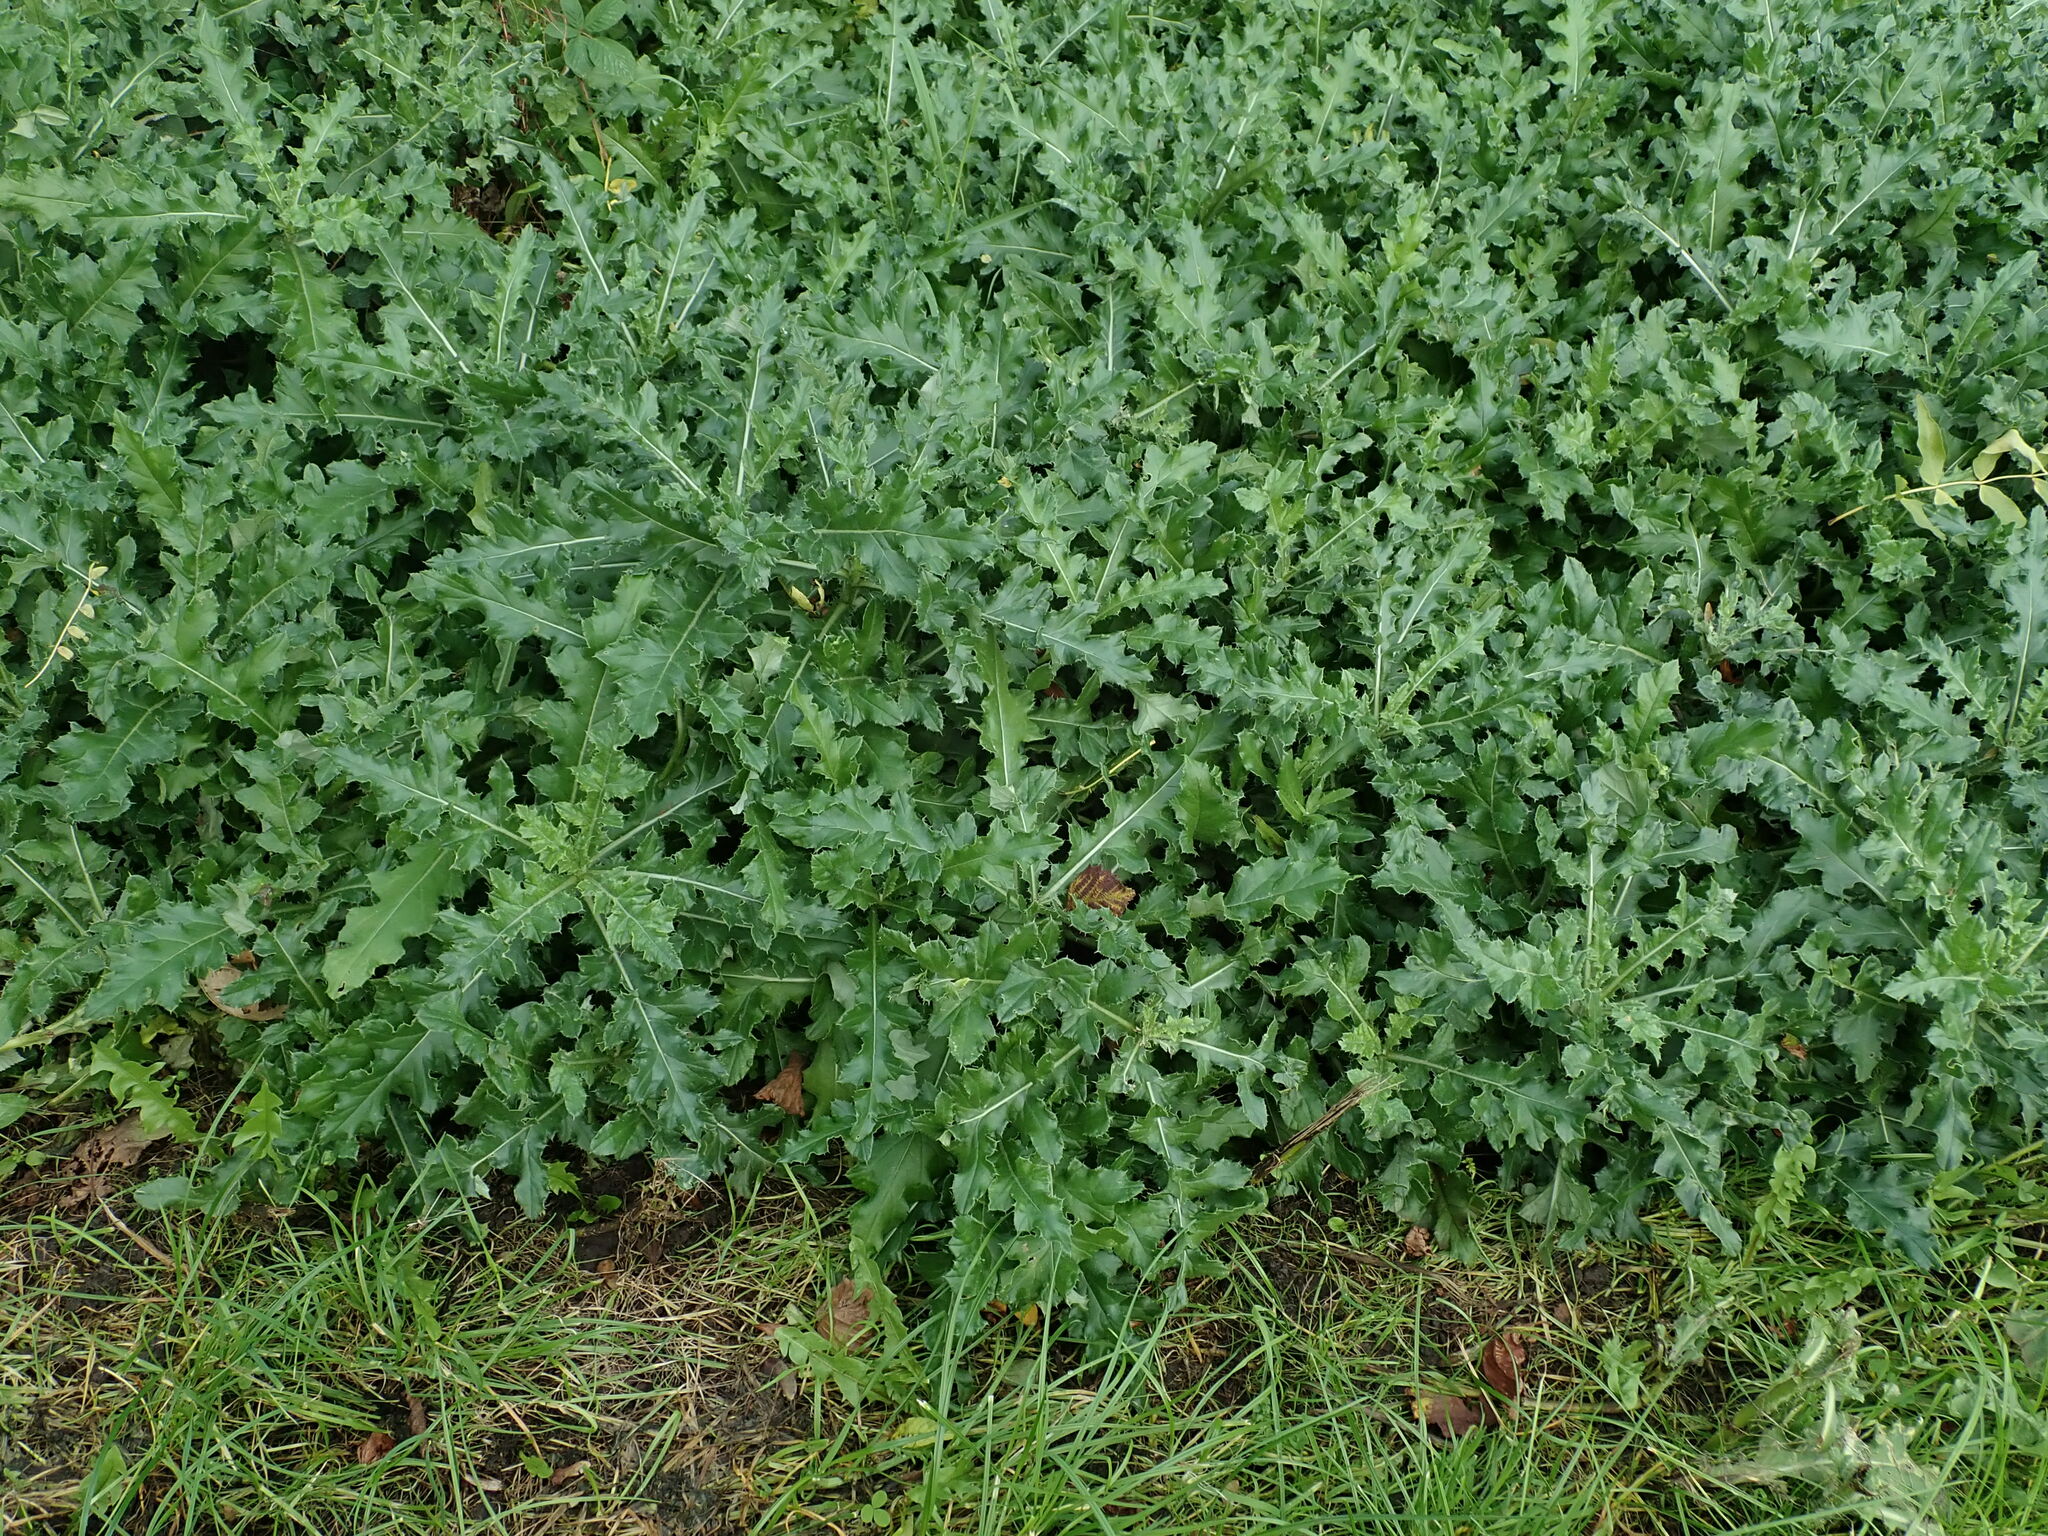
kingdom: Plantae
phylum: Tracheophyta
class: Magnoliopsida
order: Asterales
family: Asteraceae
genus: Cirsium
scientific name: Cirsium arvense
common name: Creeping thistle
